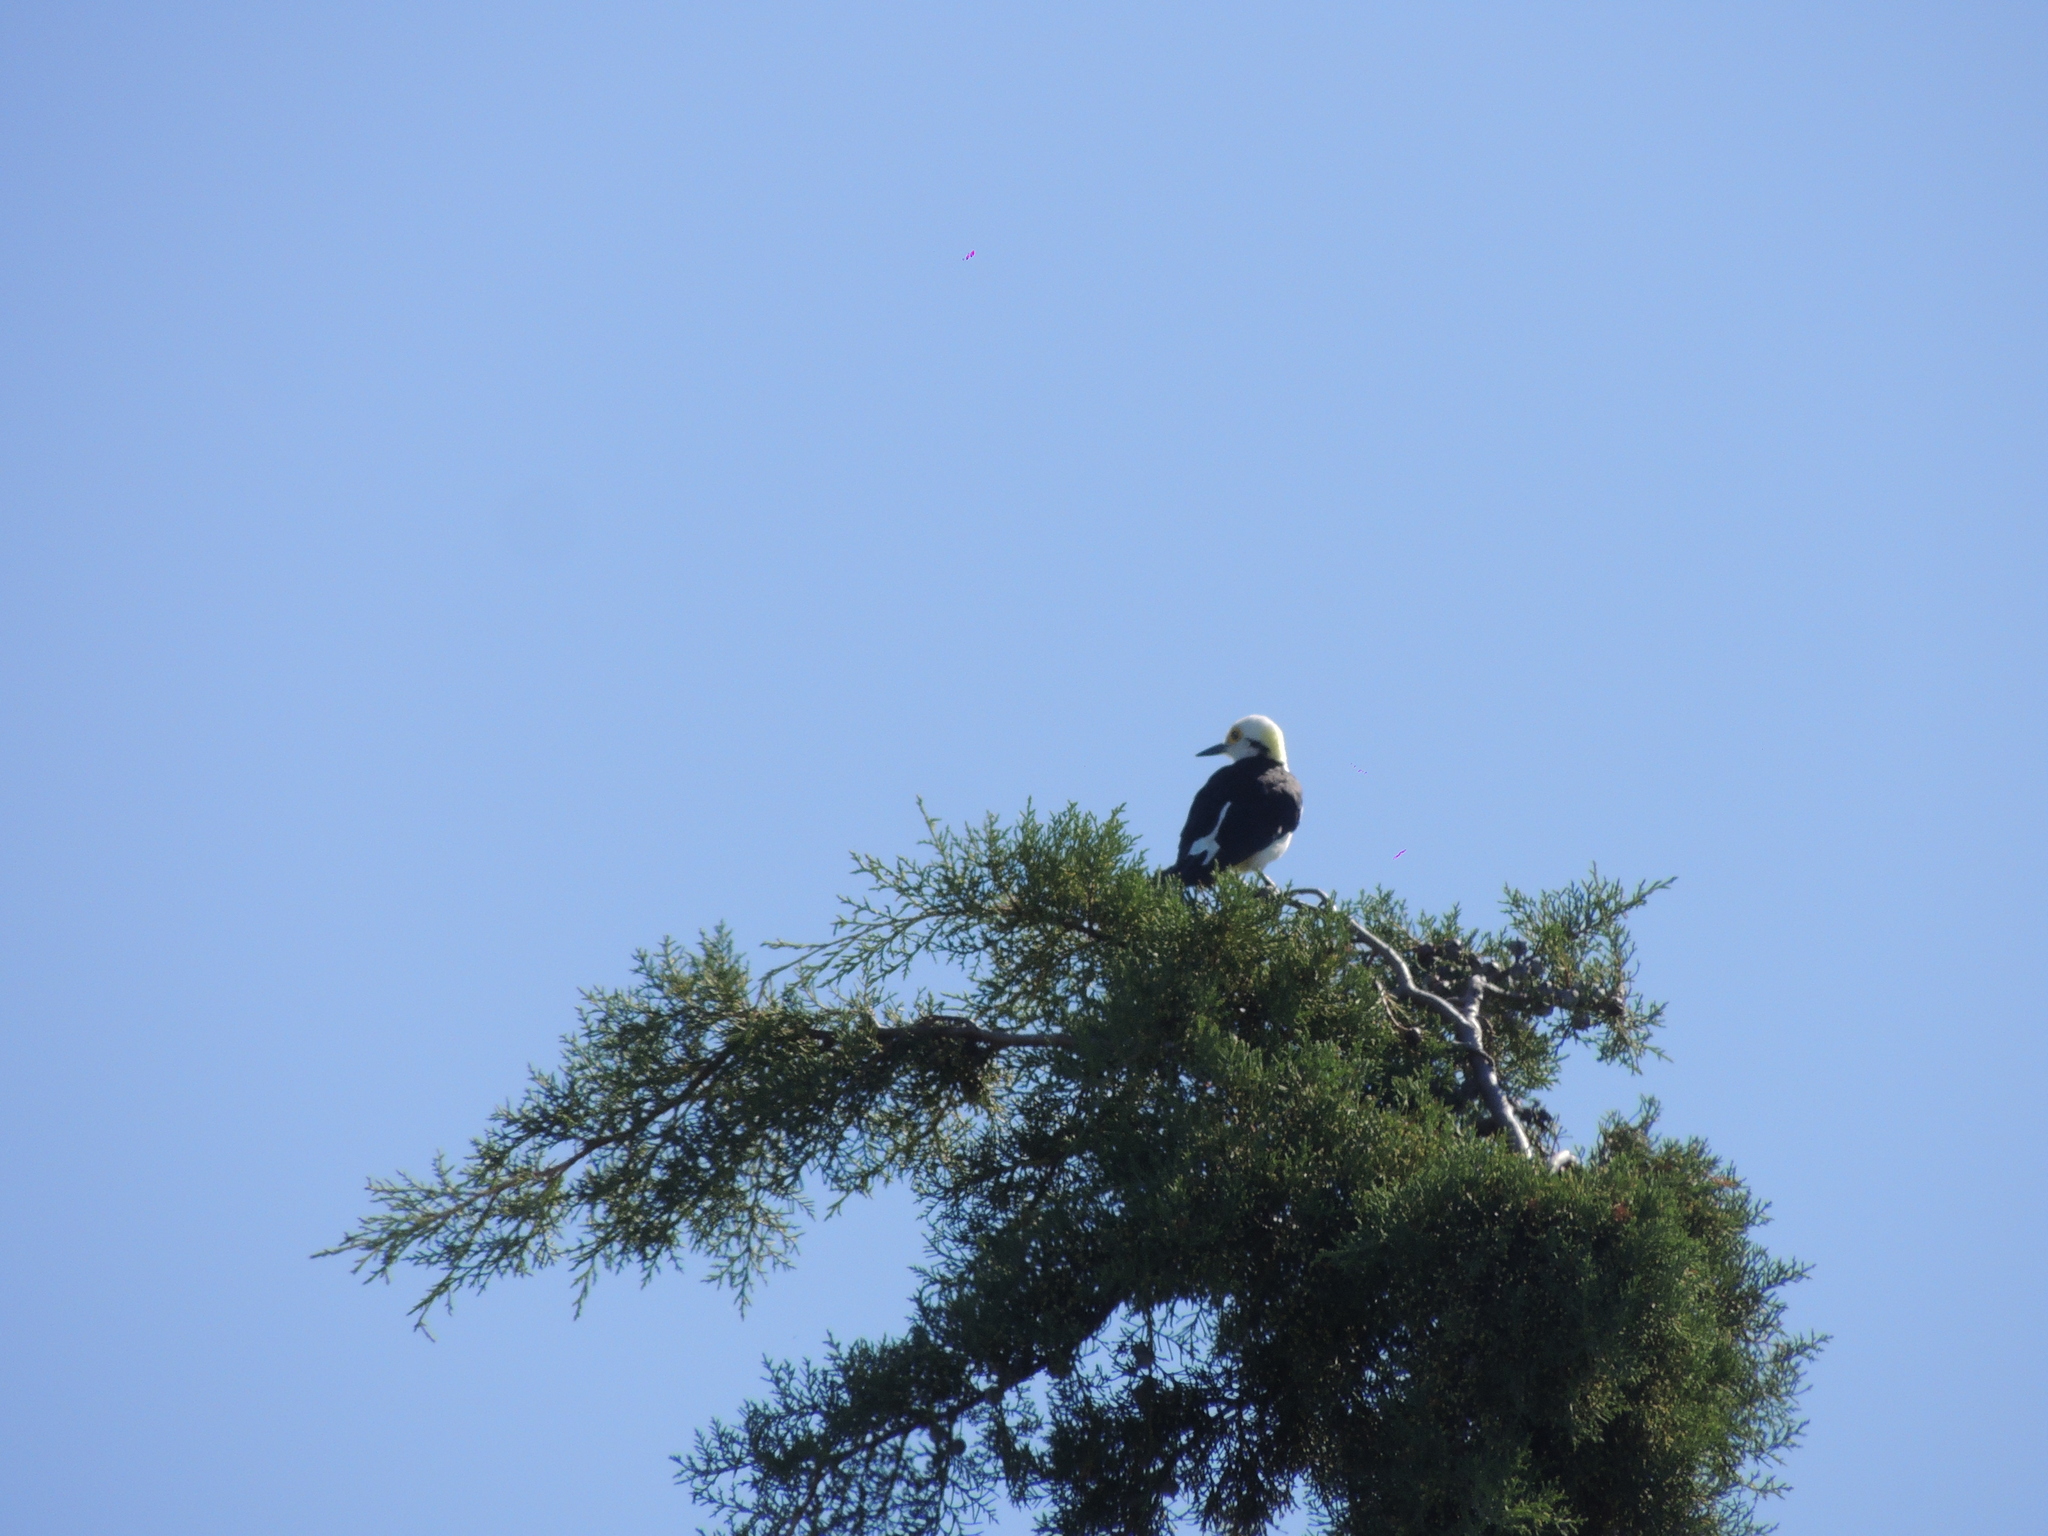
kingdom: Animalia
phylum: Chordata
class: Aves
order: Piciformes
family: Picidae
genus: Melanerpes
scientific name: Melanerpes candidus
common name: White woodpecker
